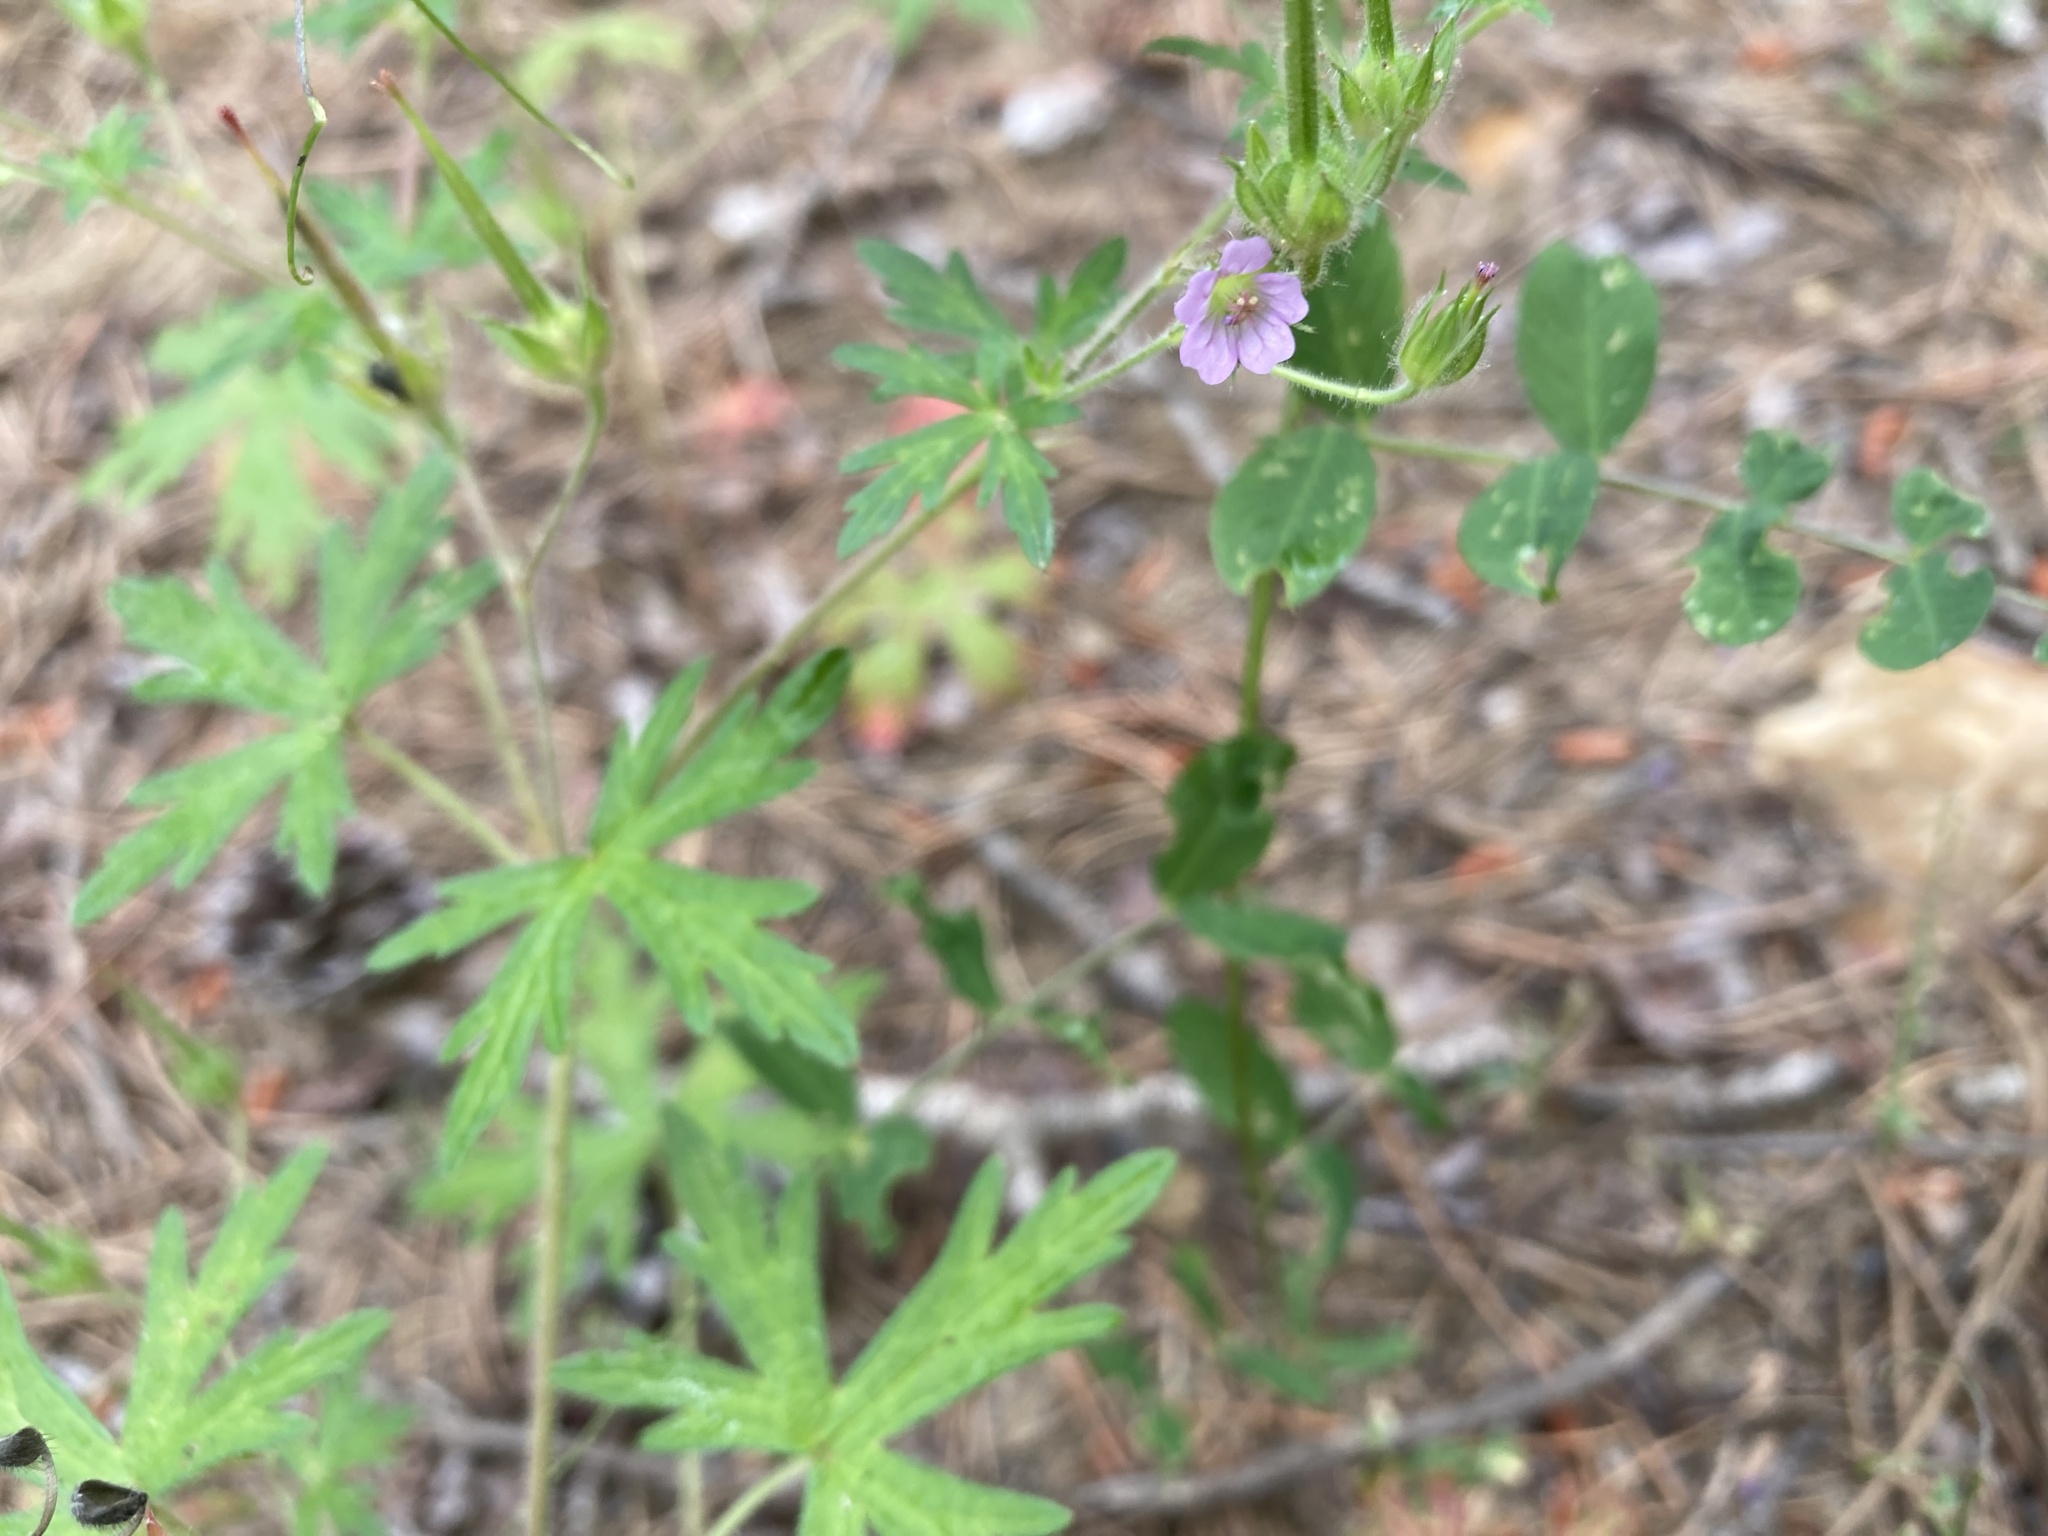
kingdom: Plantae
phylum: Tracheophyta
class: Magnoliopsida
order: Geraniales
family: Geraniaceae
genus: Geranium
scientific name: Geranium bicknellii
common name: Bicknell's cranesbill
